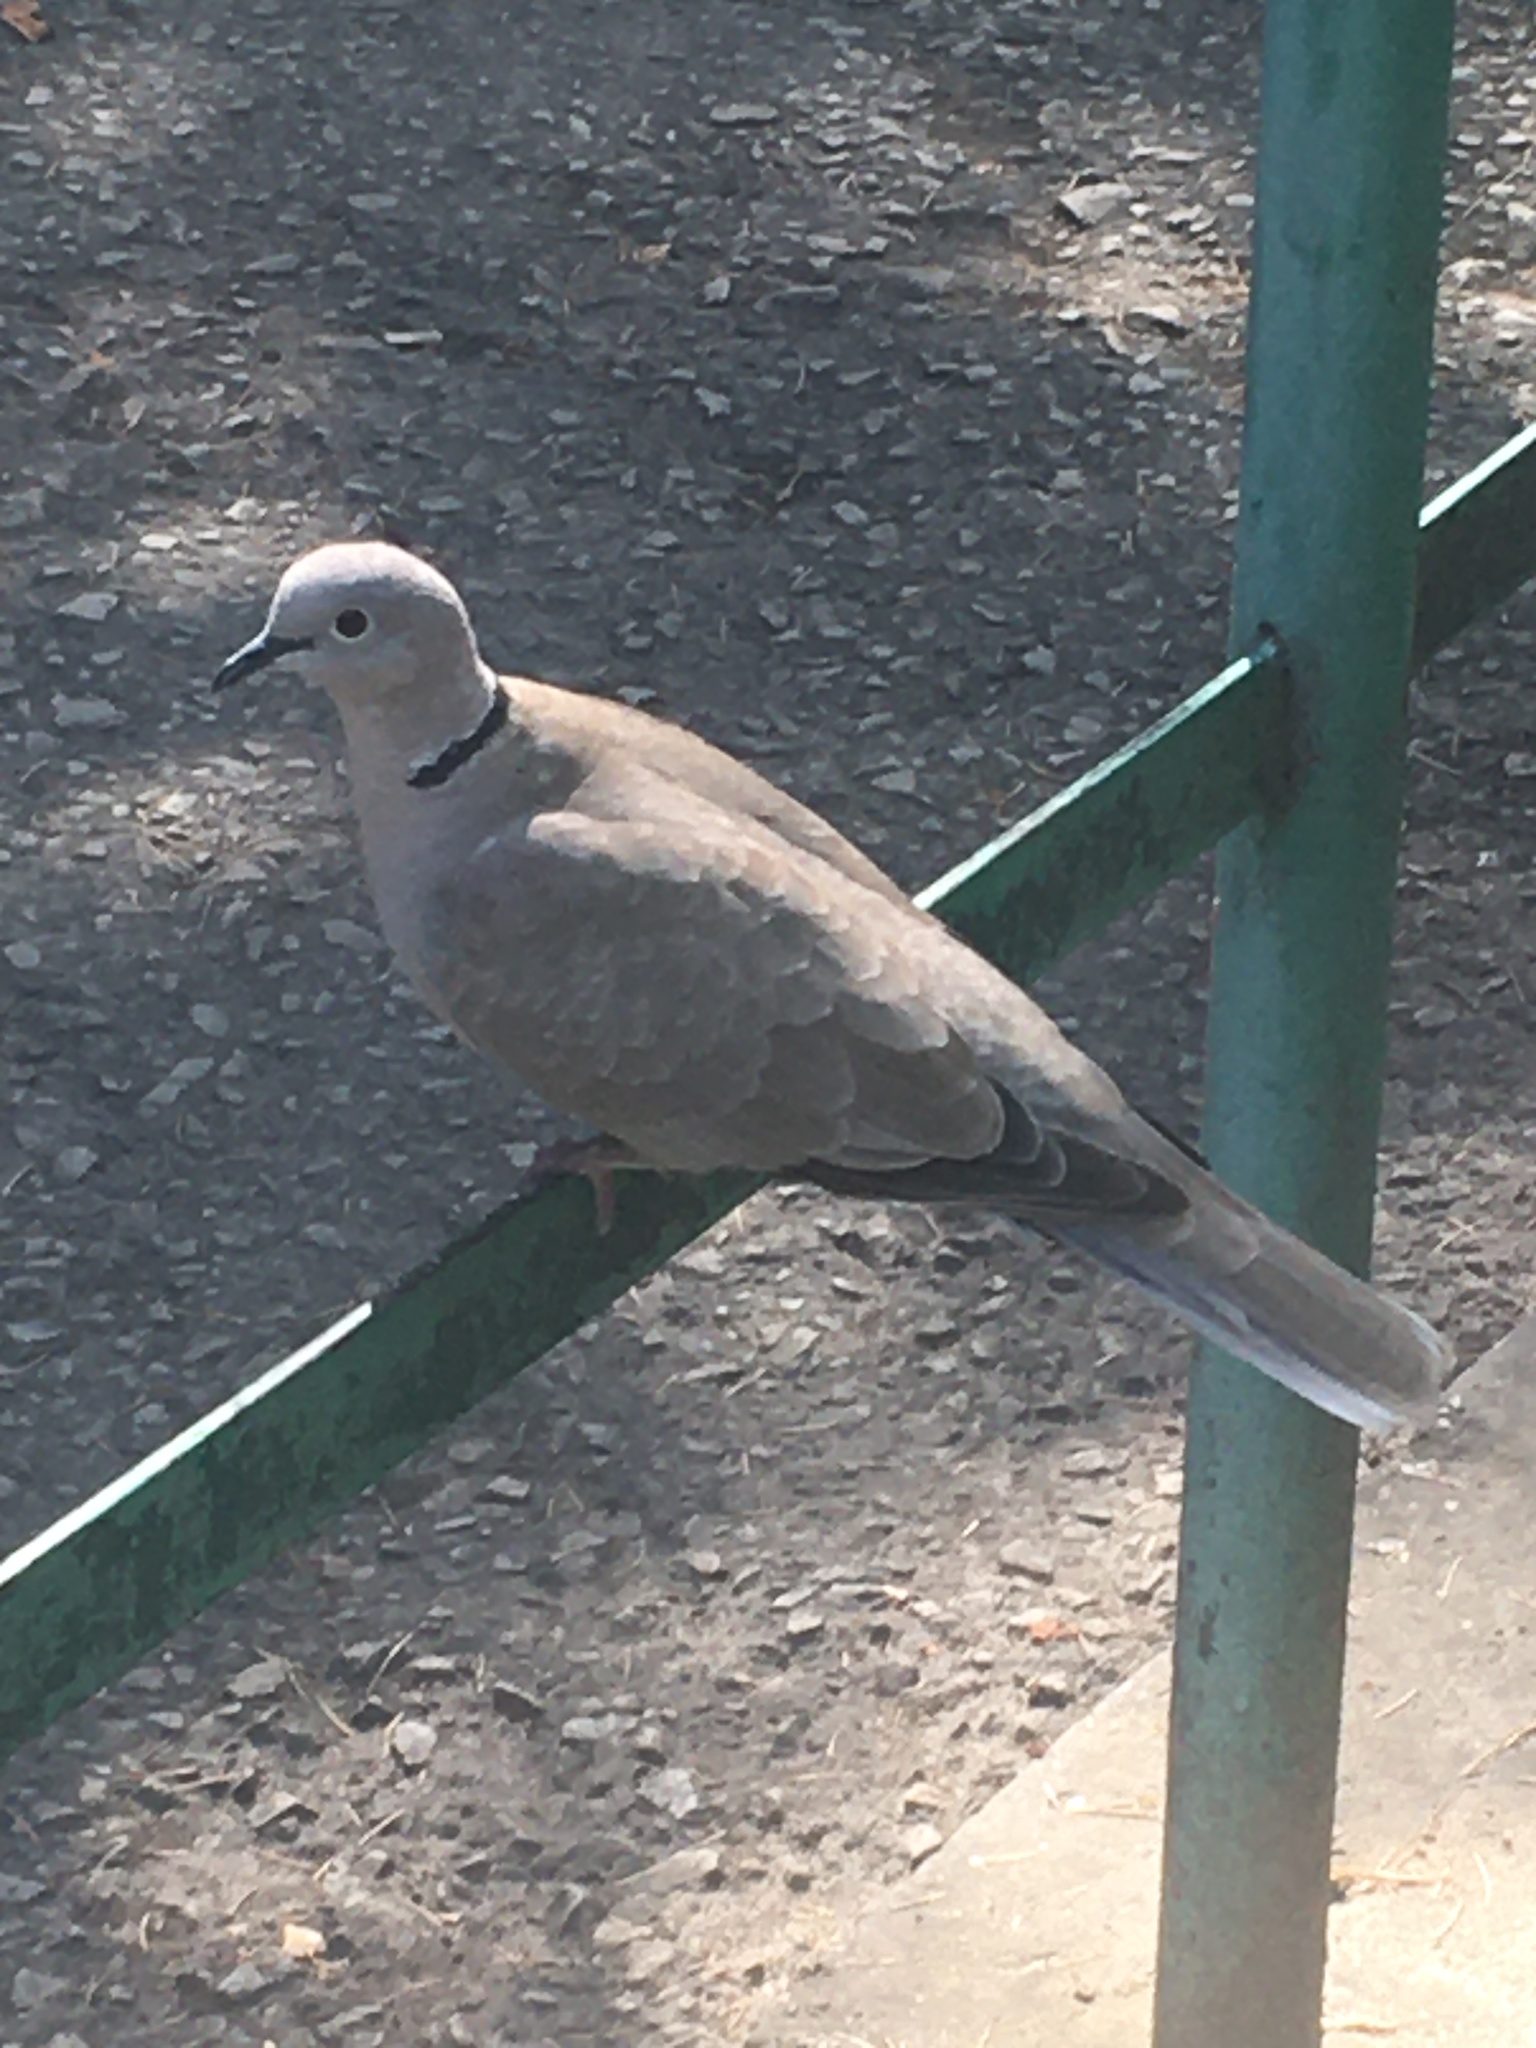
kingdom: Animalia
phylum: Chordata
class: Aves
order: Columbiformes
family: Columbidae
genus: Streptopelia
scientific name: Streptopelia decaocto
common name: Eurasian collared dove
